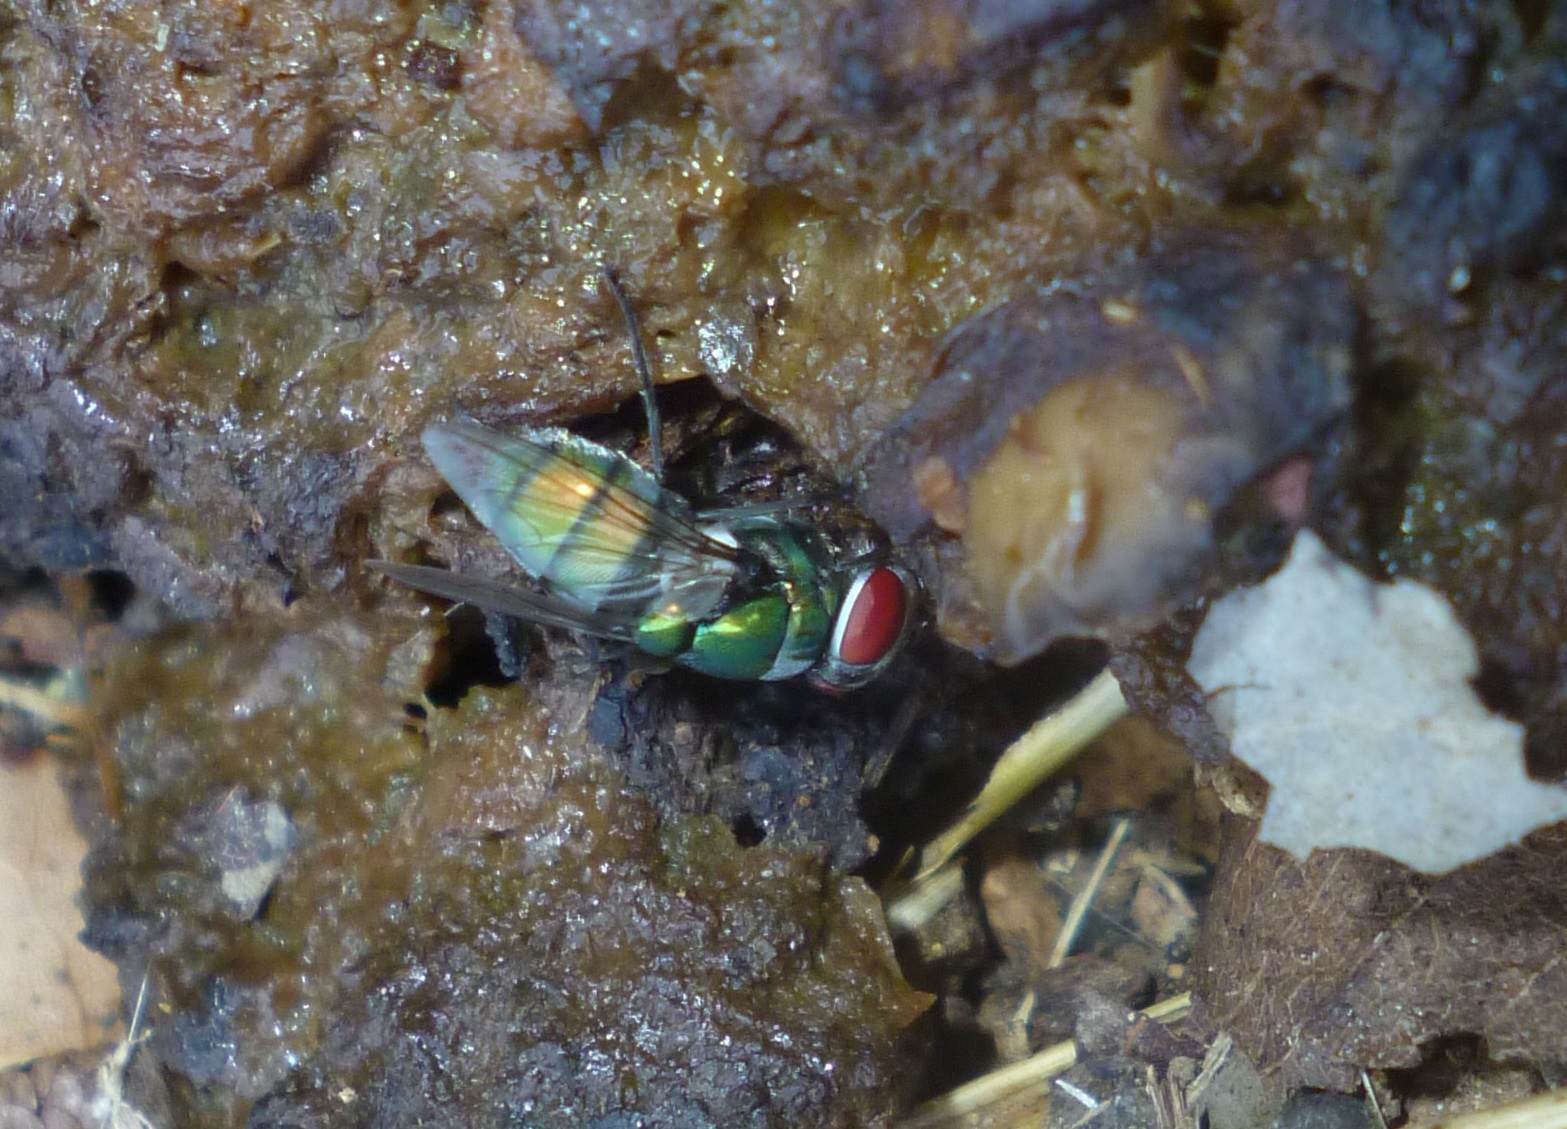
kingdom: Animalia
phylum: Arthropoda
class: Insecta
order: Diptera
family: Calliphoridae
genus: Chrysomya
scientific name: Chrysomya albiceps
